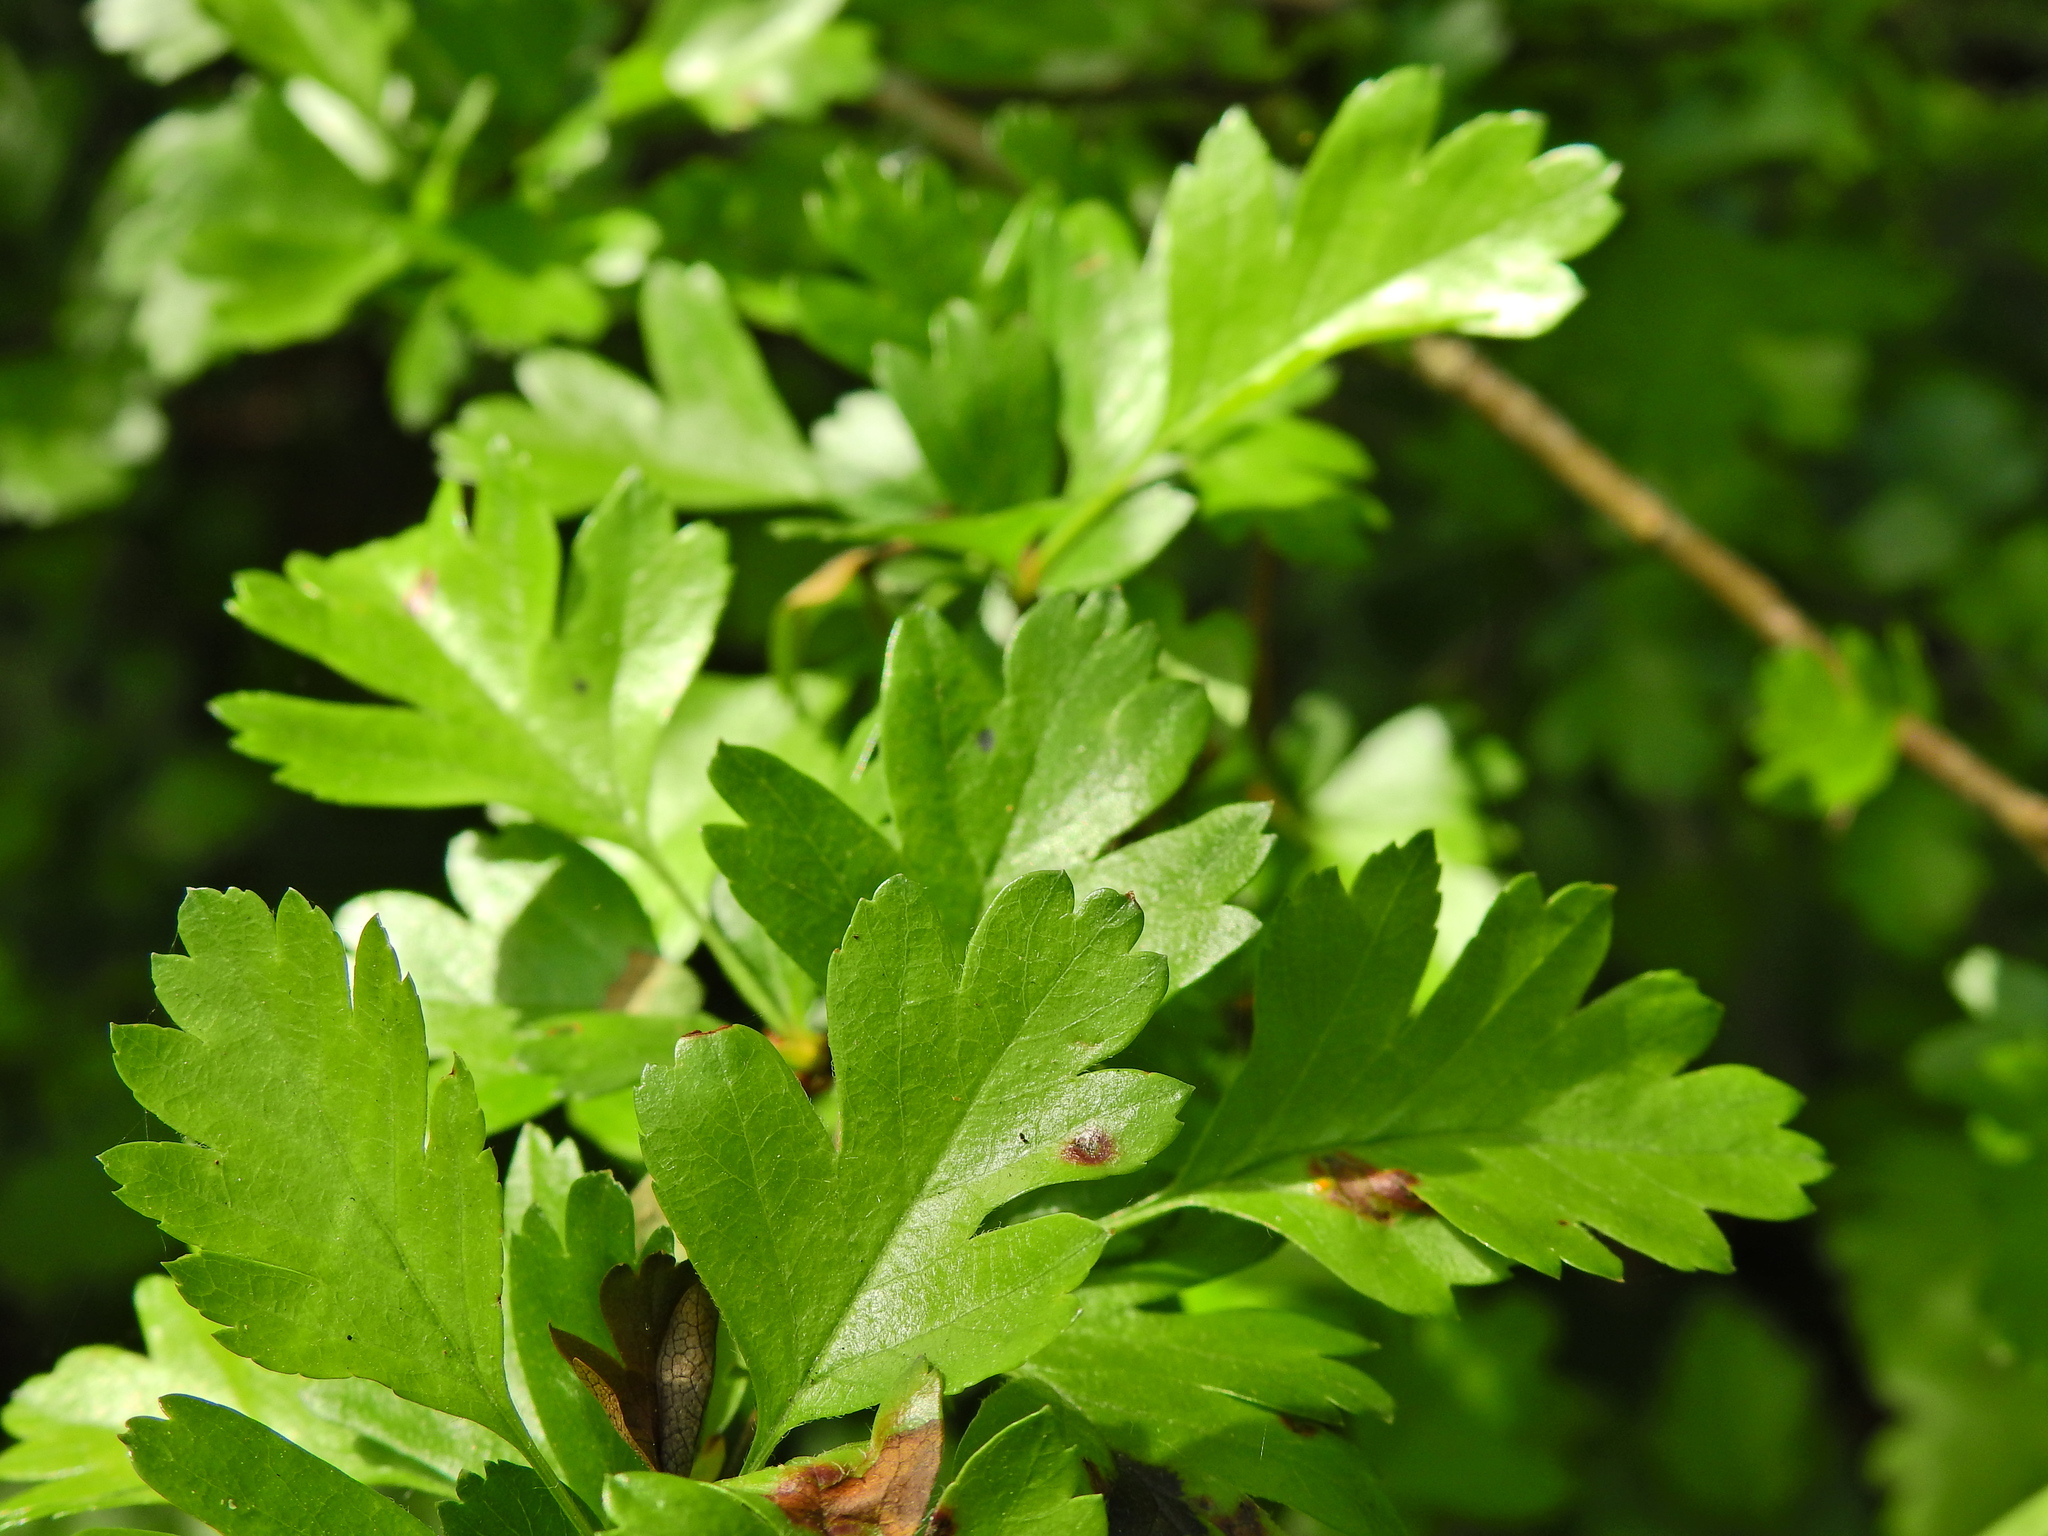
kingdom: Plantae
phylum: Tracheophyta
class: Magnoliopsida
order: Rosales
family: Rosaceae
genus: Crataegus
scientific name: Crataegus monogyna
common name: Hawthorn
